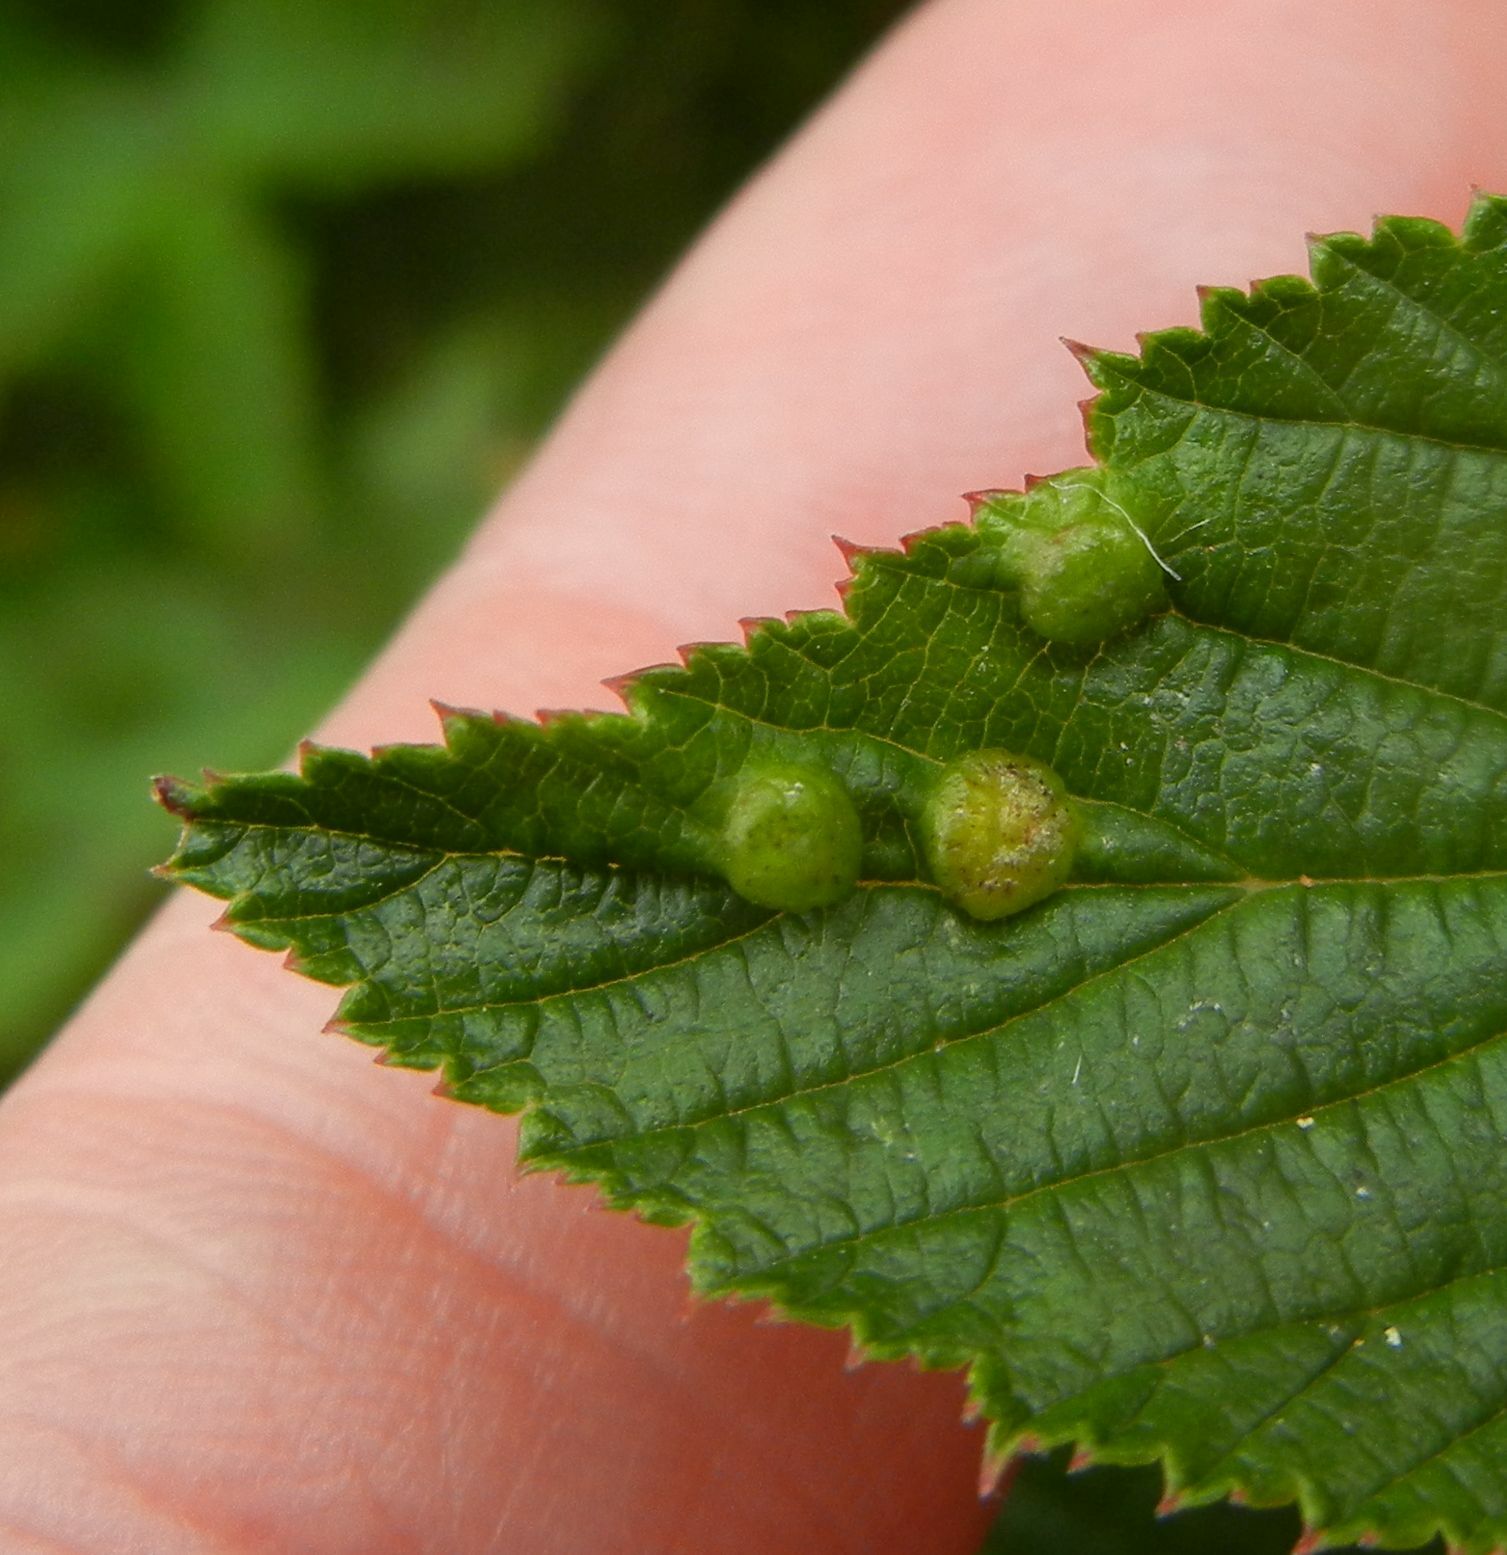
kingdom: Animalia
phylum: Arthropoda
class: Insecta
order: Diptera
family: Cecidomyiidae
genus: Dasineura
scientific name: Dasineura ulmaria
